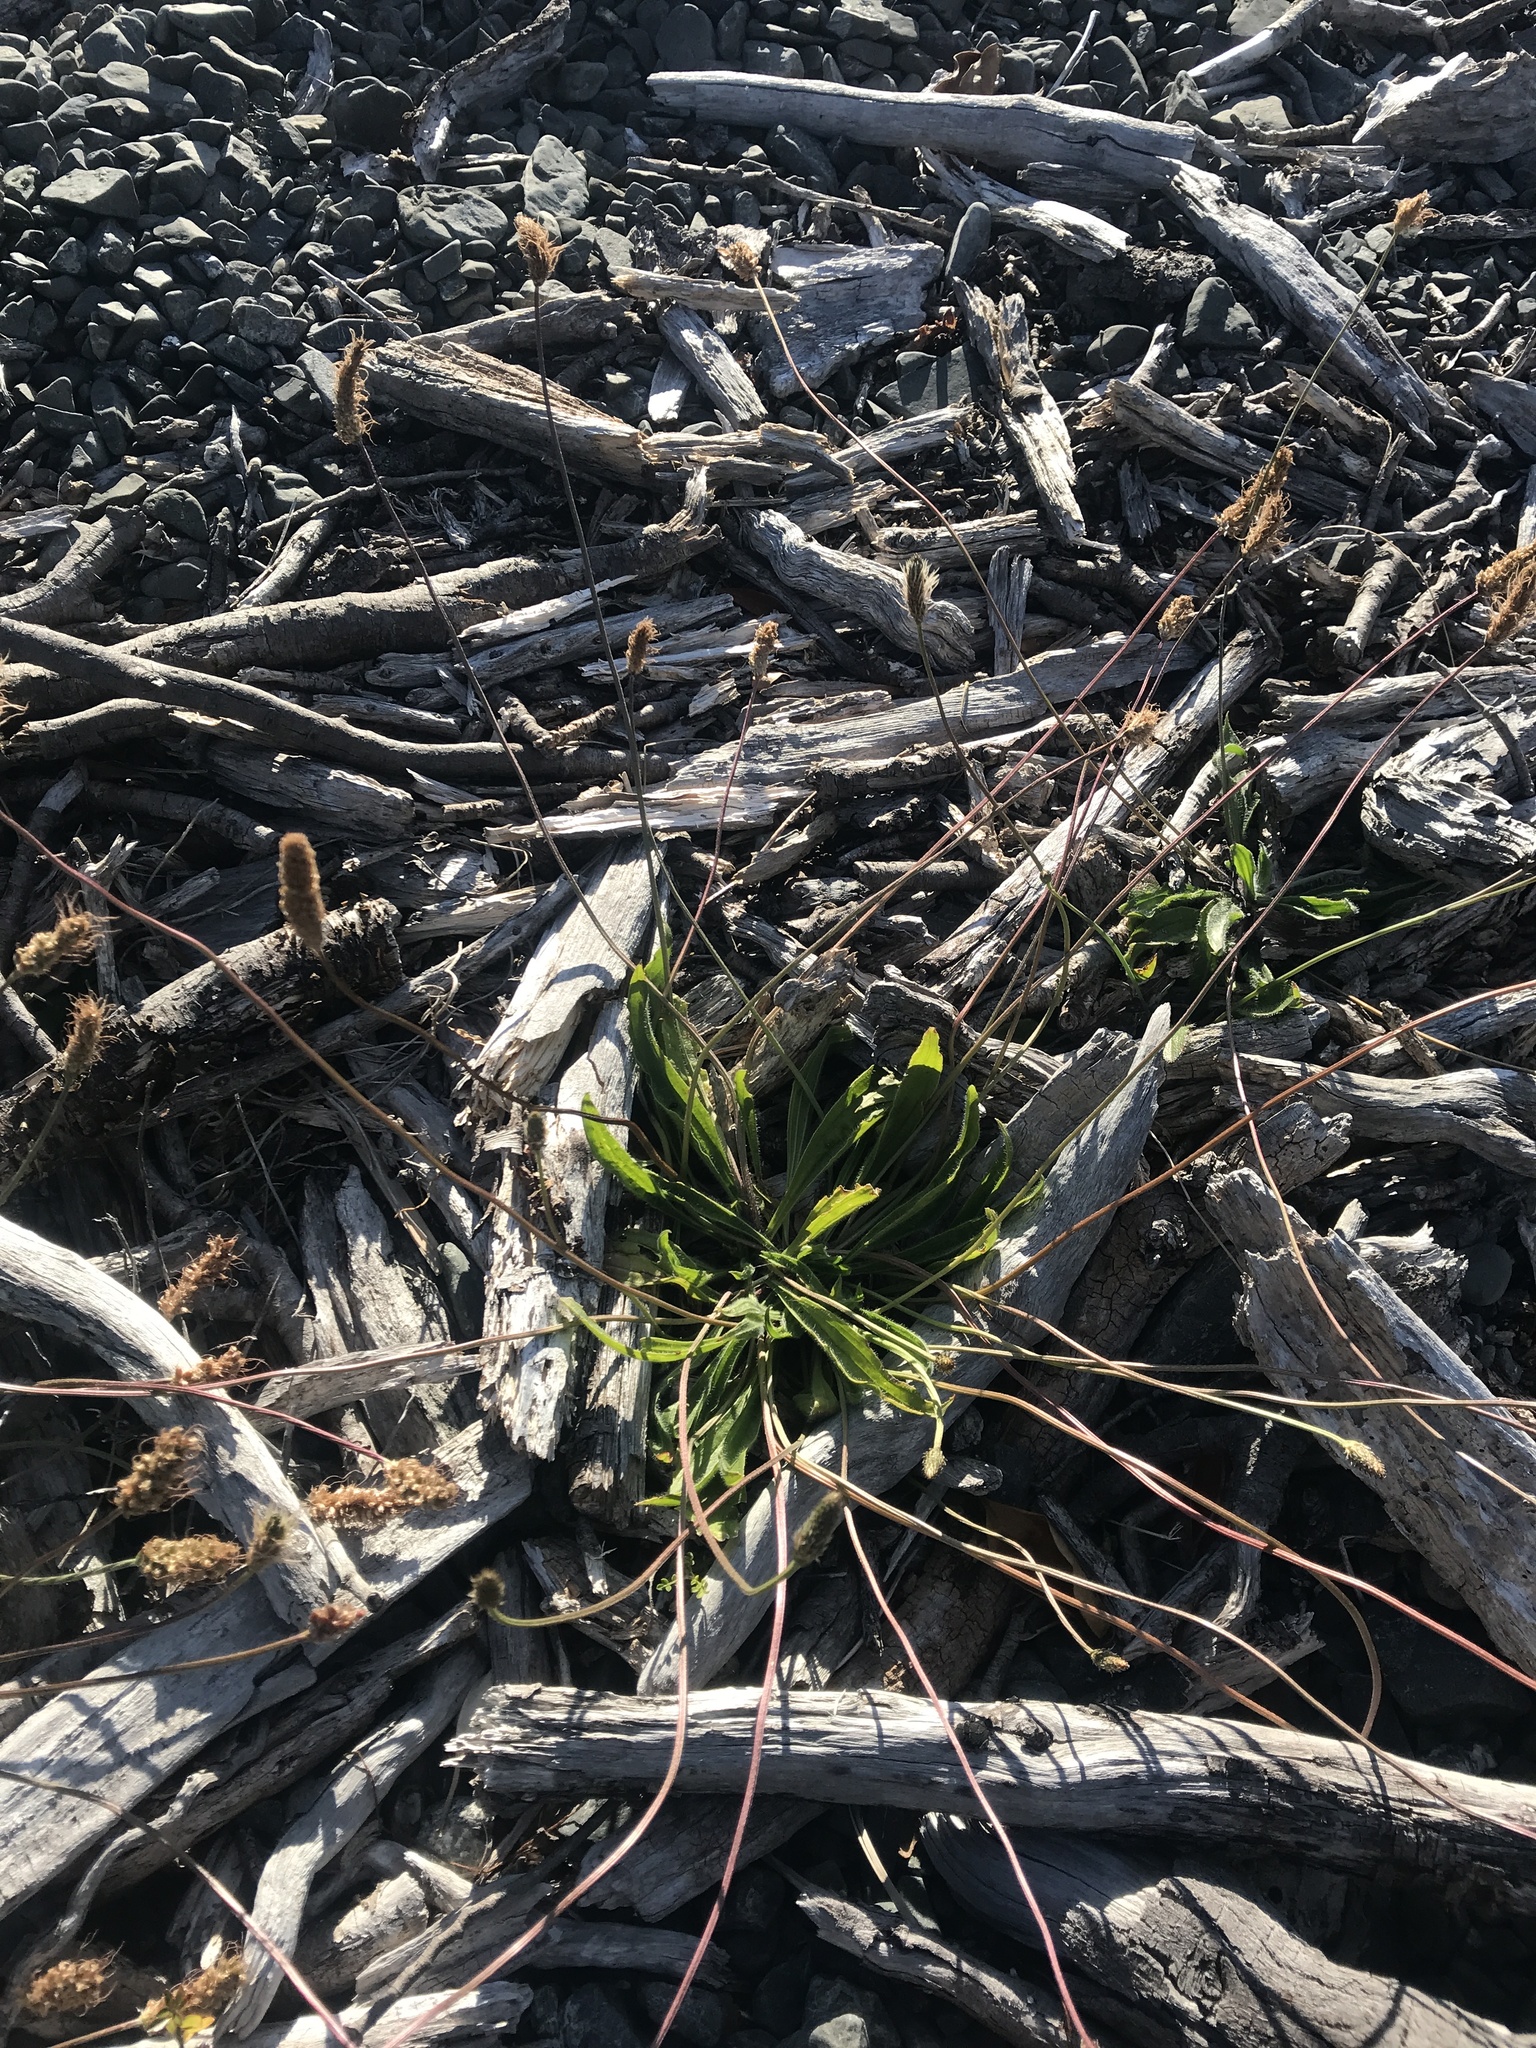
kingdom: Plantae
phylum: Tracheophyta
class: Magnoliopsida
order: Lamiales
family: Plantaginaceae
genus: Plantago
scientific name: Plantago lanceolata
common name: Ribwort plantain
